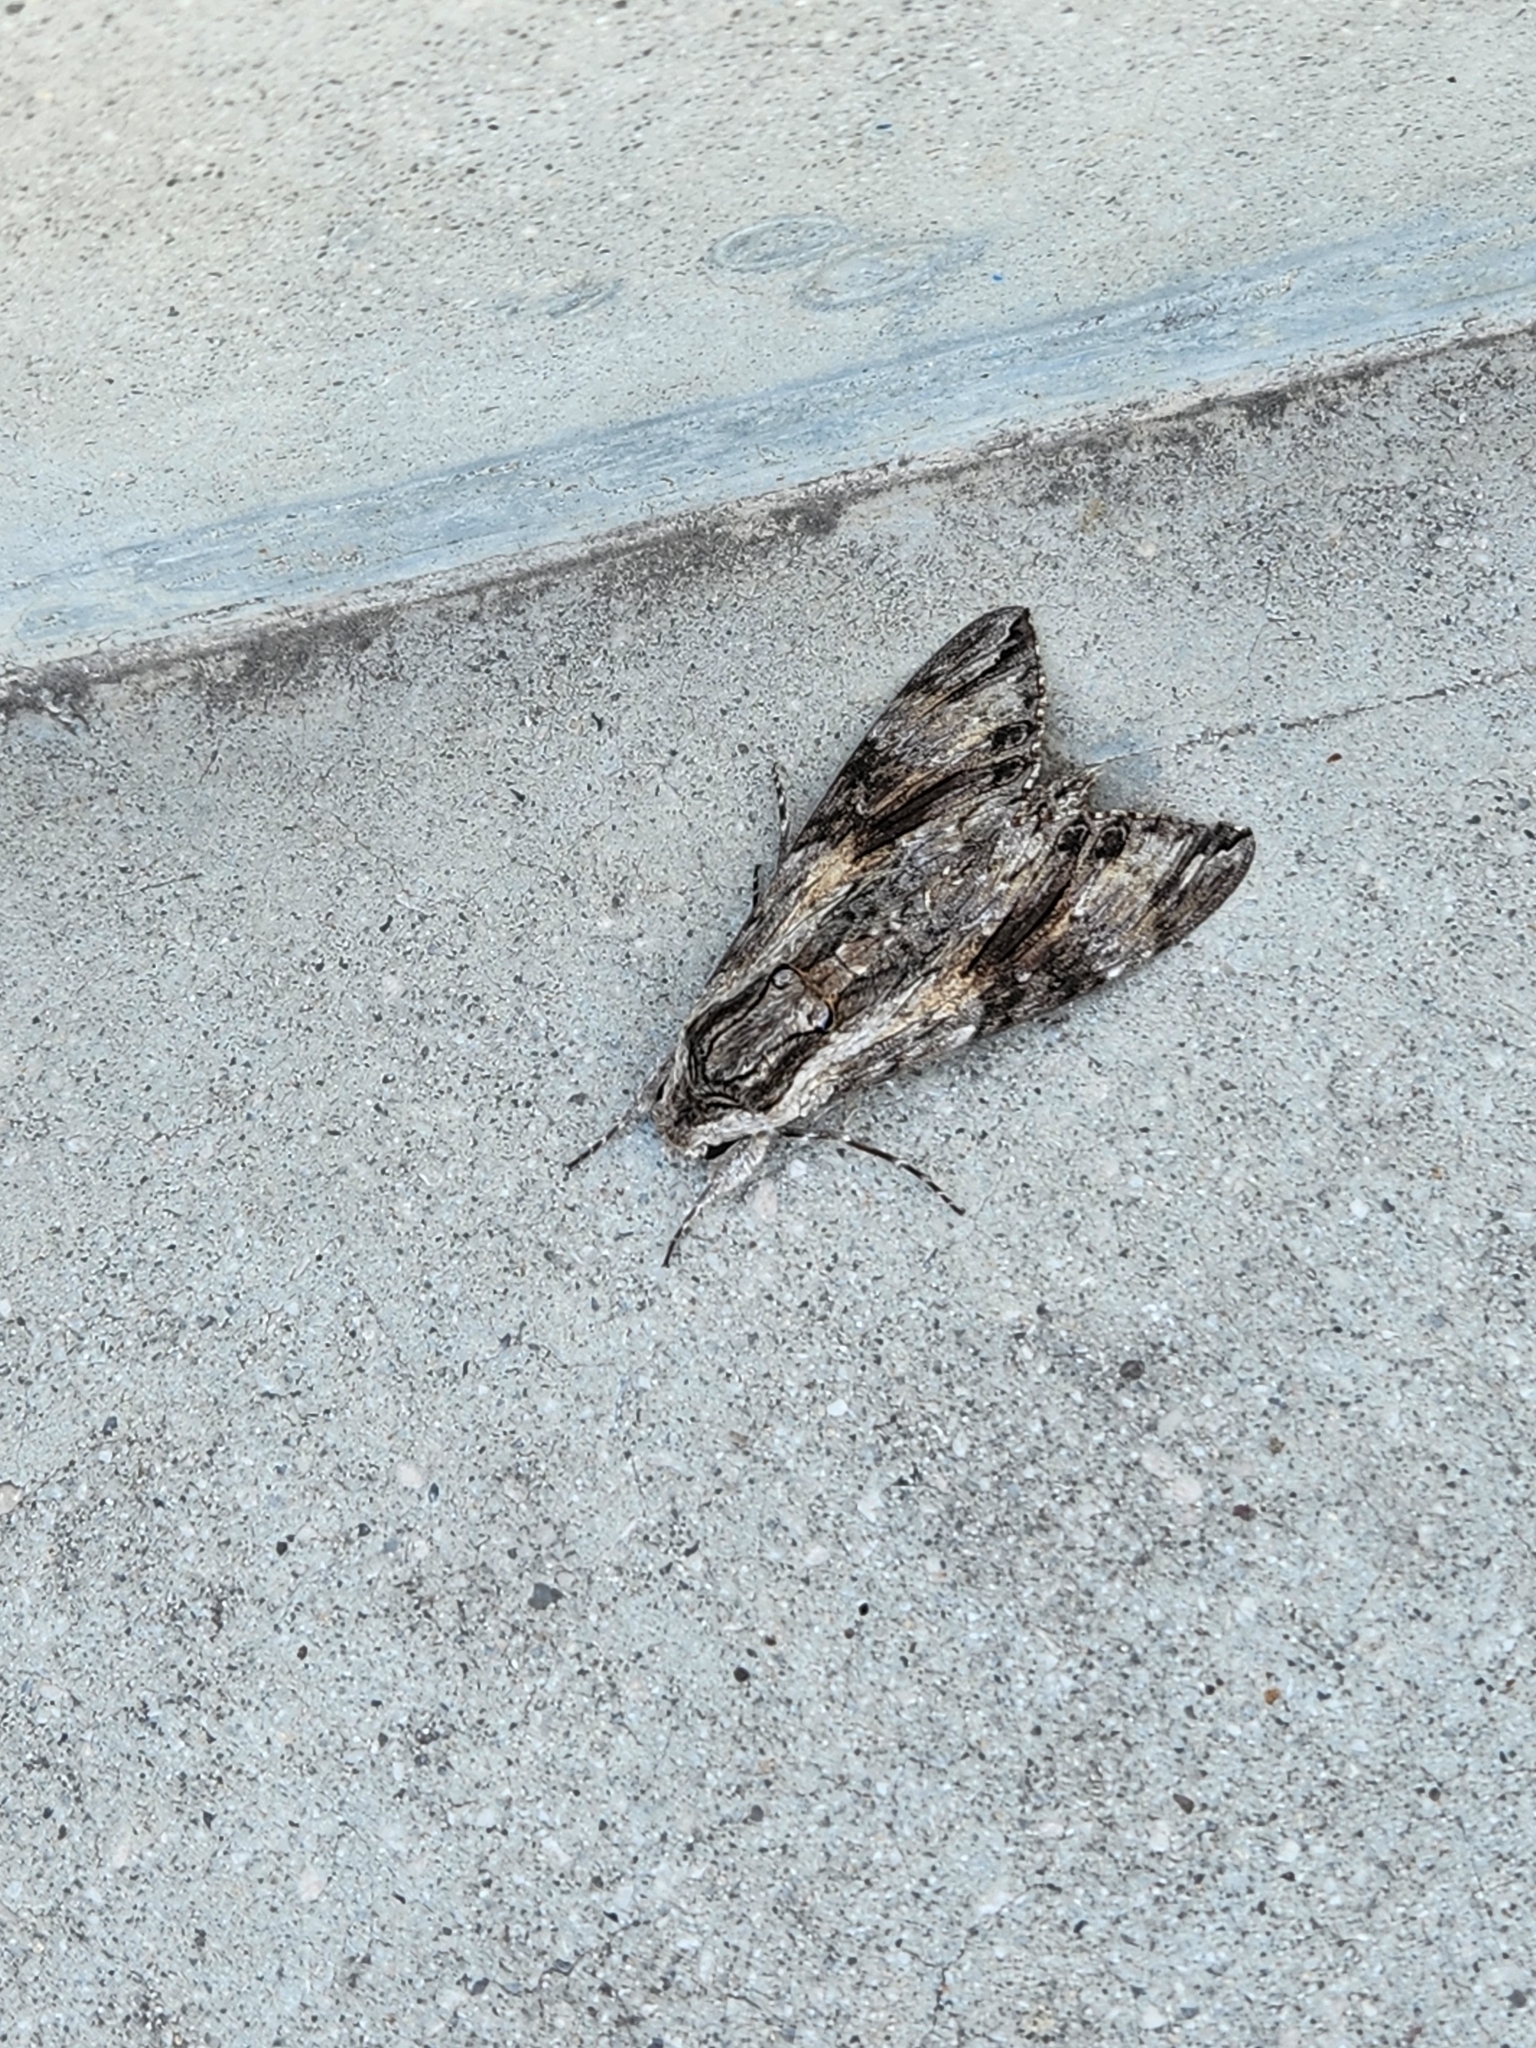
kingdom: Animalia
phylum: Arthropoda
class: Insecta
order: Lepidoptera
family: Sphingidae
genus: Agrius
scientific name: Agrius convolvuli
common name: Convolvulus hawkmoth
